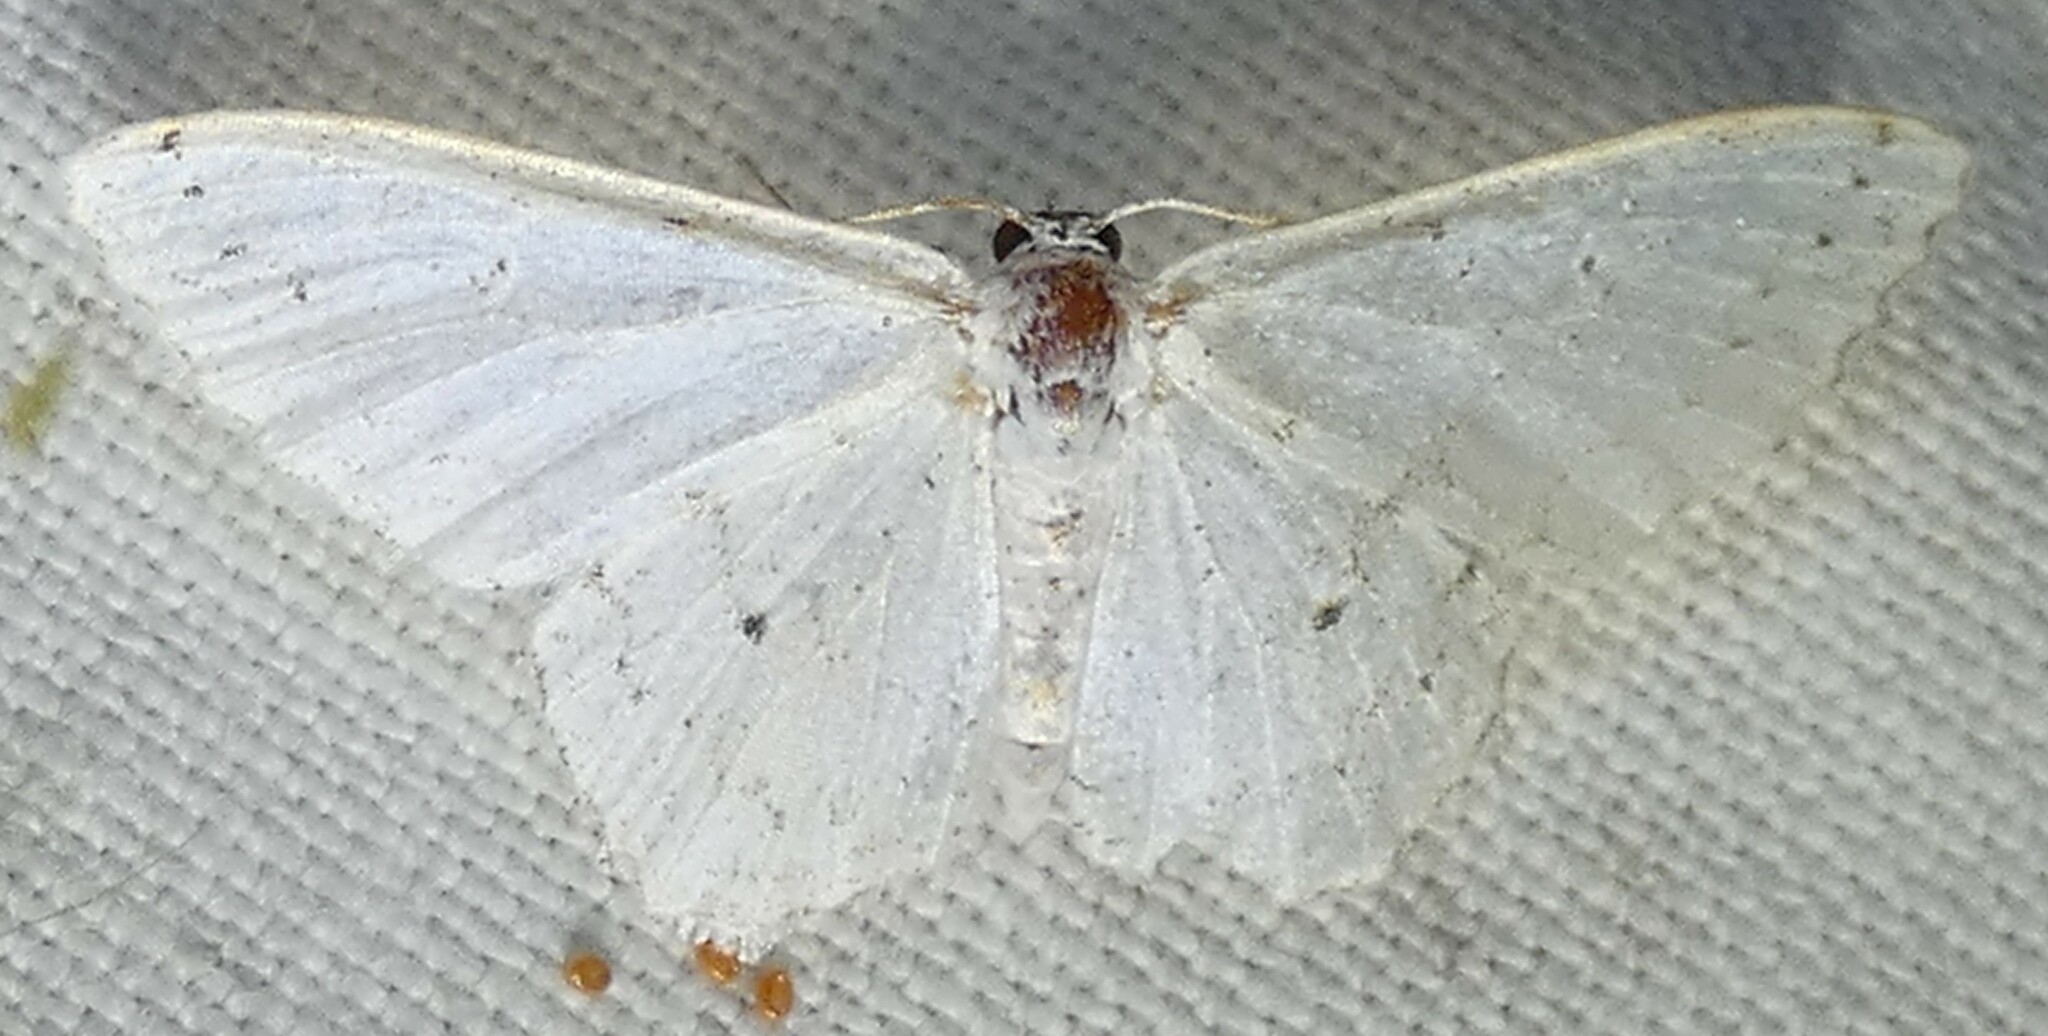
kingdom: Animalia
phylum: Arthropoda
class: Insecta
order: Lepidoptera
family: Geometridae
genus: Idaea
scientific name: Idaea tacturata
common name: Dot-lined wave
